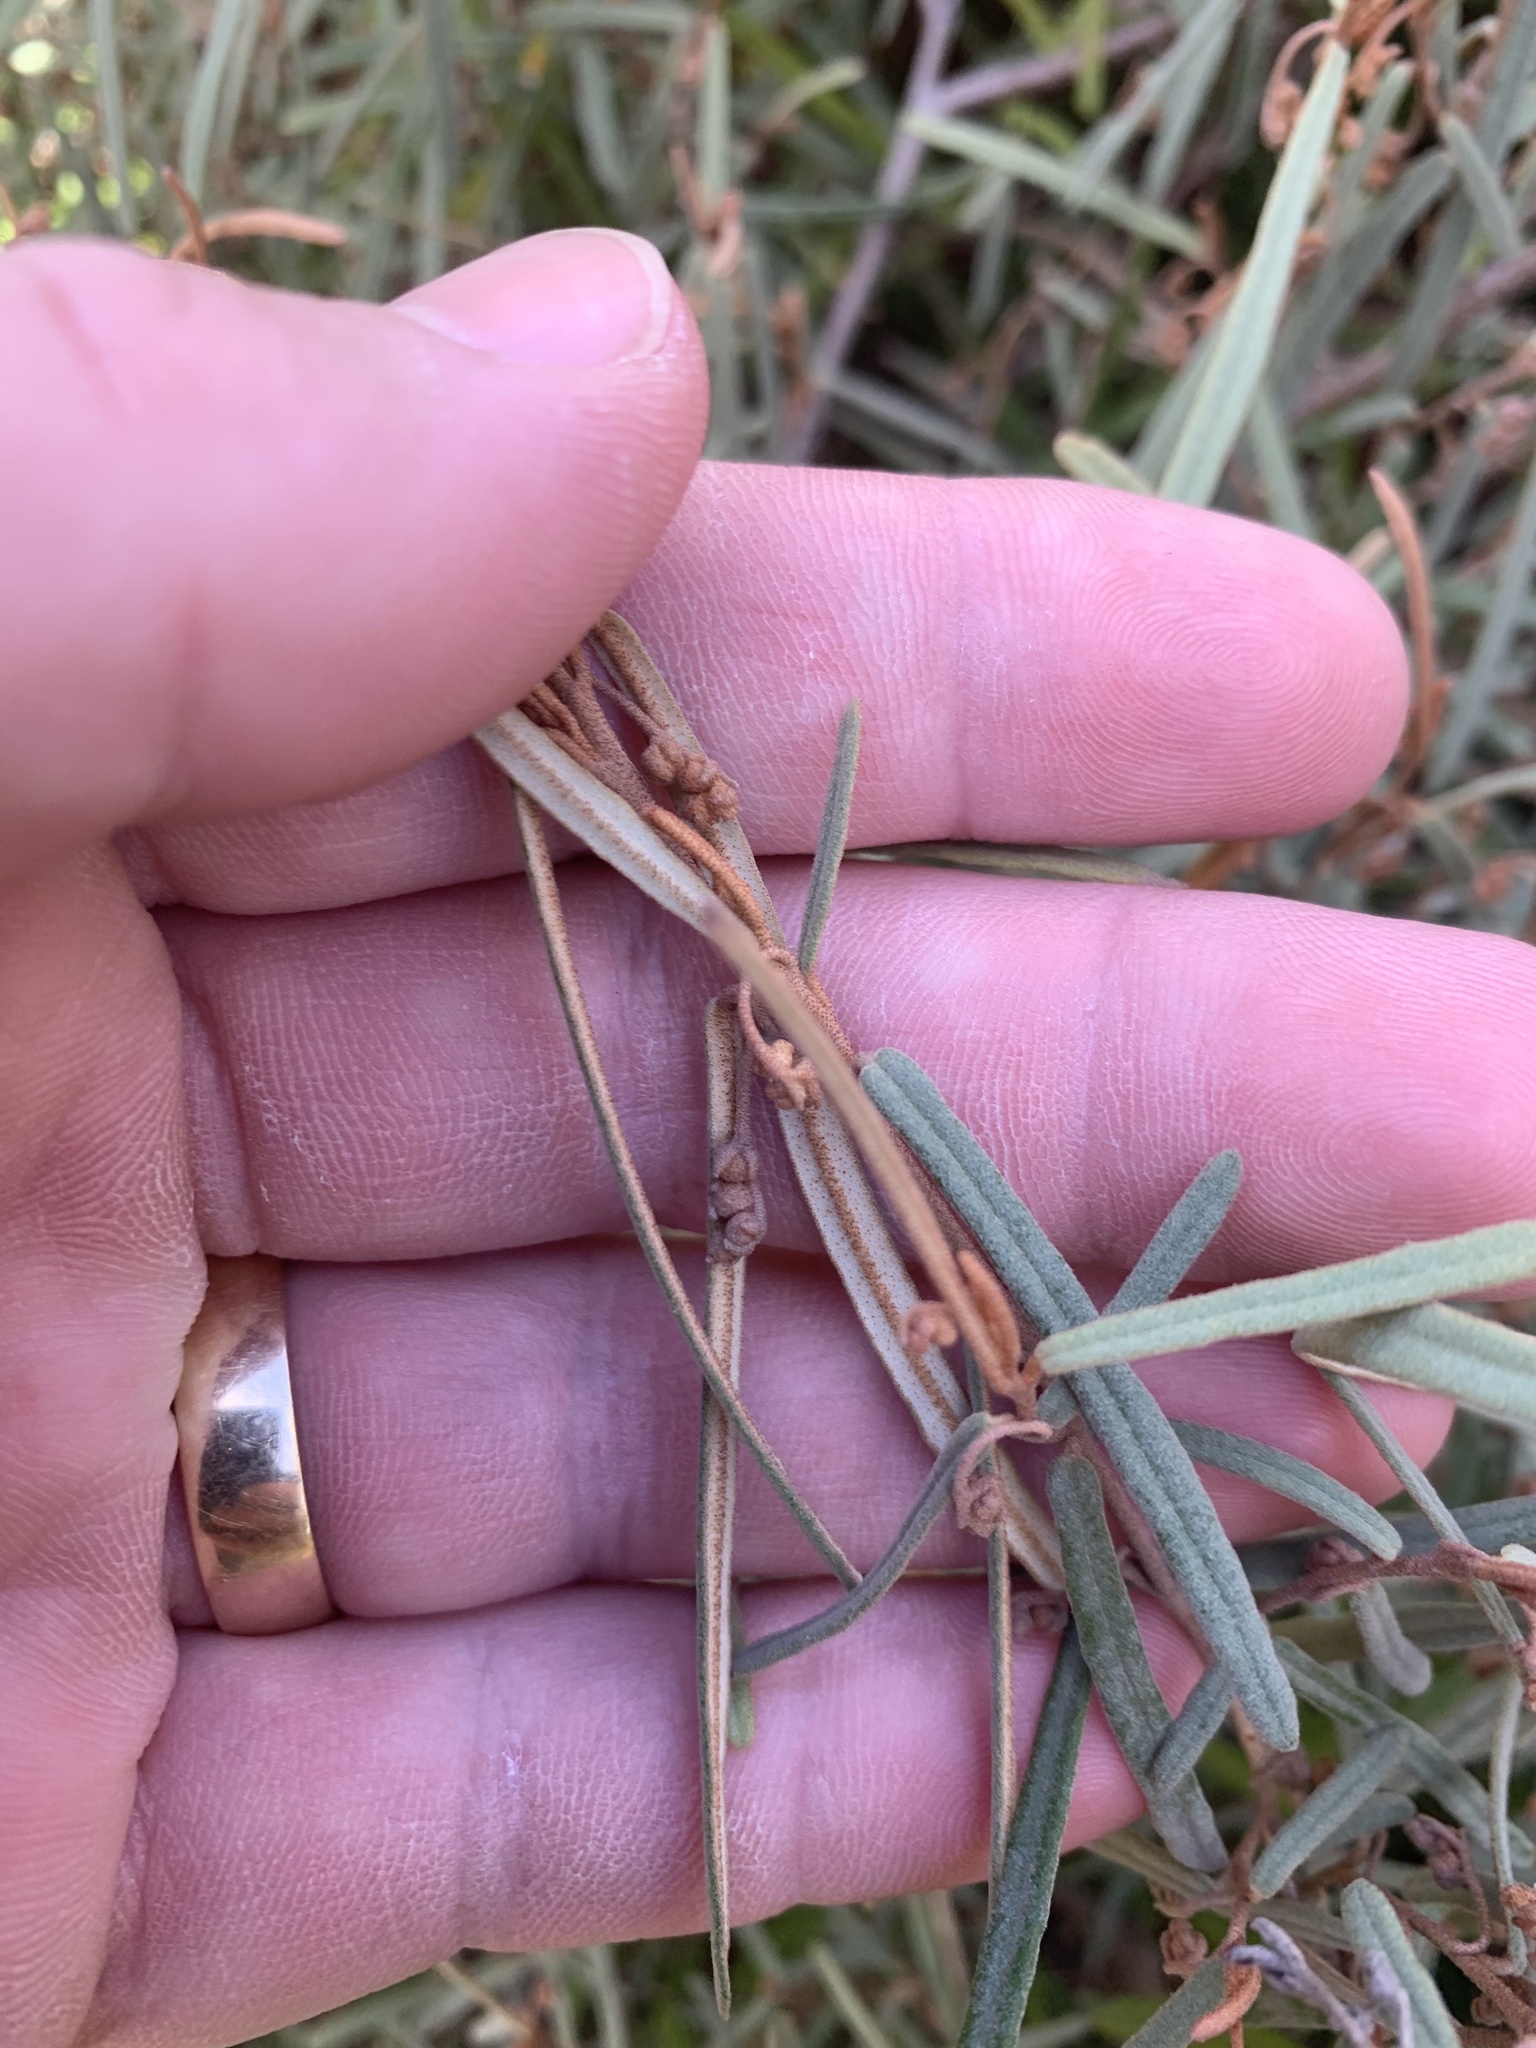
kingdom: Plantae
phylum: Tracheophyta
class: Magnoliopsida
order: Malvales
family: Malvaceae
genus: Lasiopetalum
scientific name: Lasiopetalum baueri
